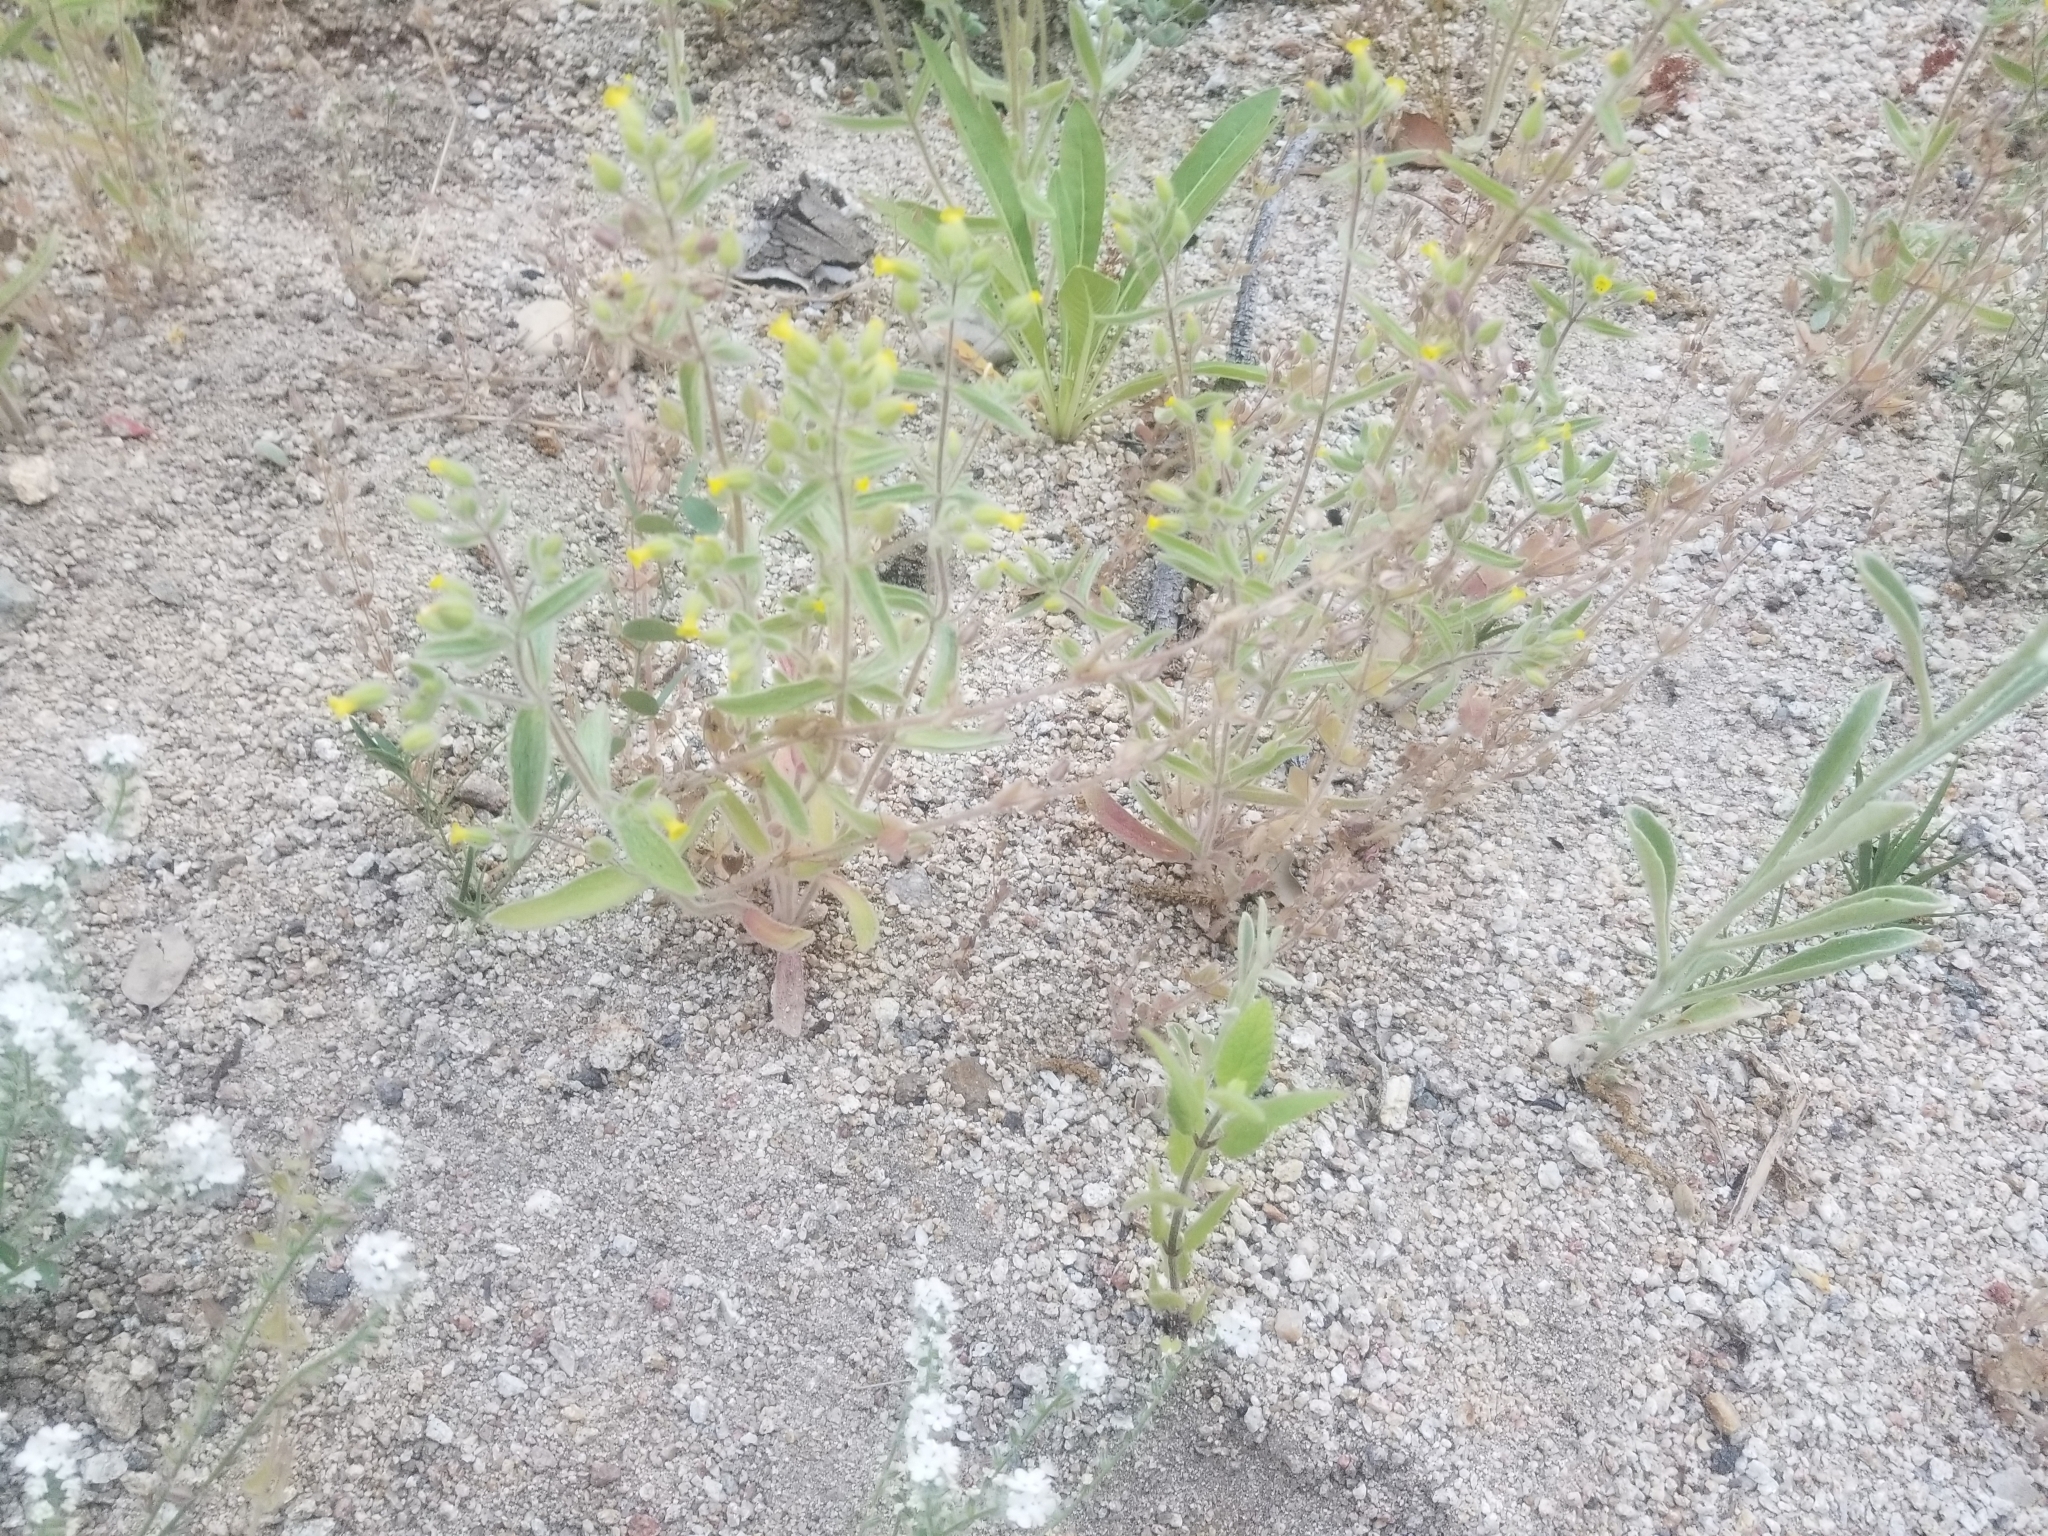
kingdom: Plantae
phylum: Tracheophyta
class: Magnoliopsida
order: Lamiales
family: Phrymaceae
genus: Mimetanthe
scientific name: Mimetanthe pilosa
